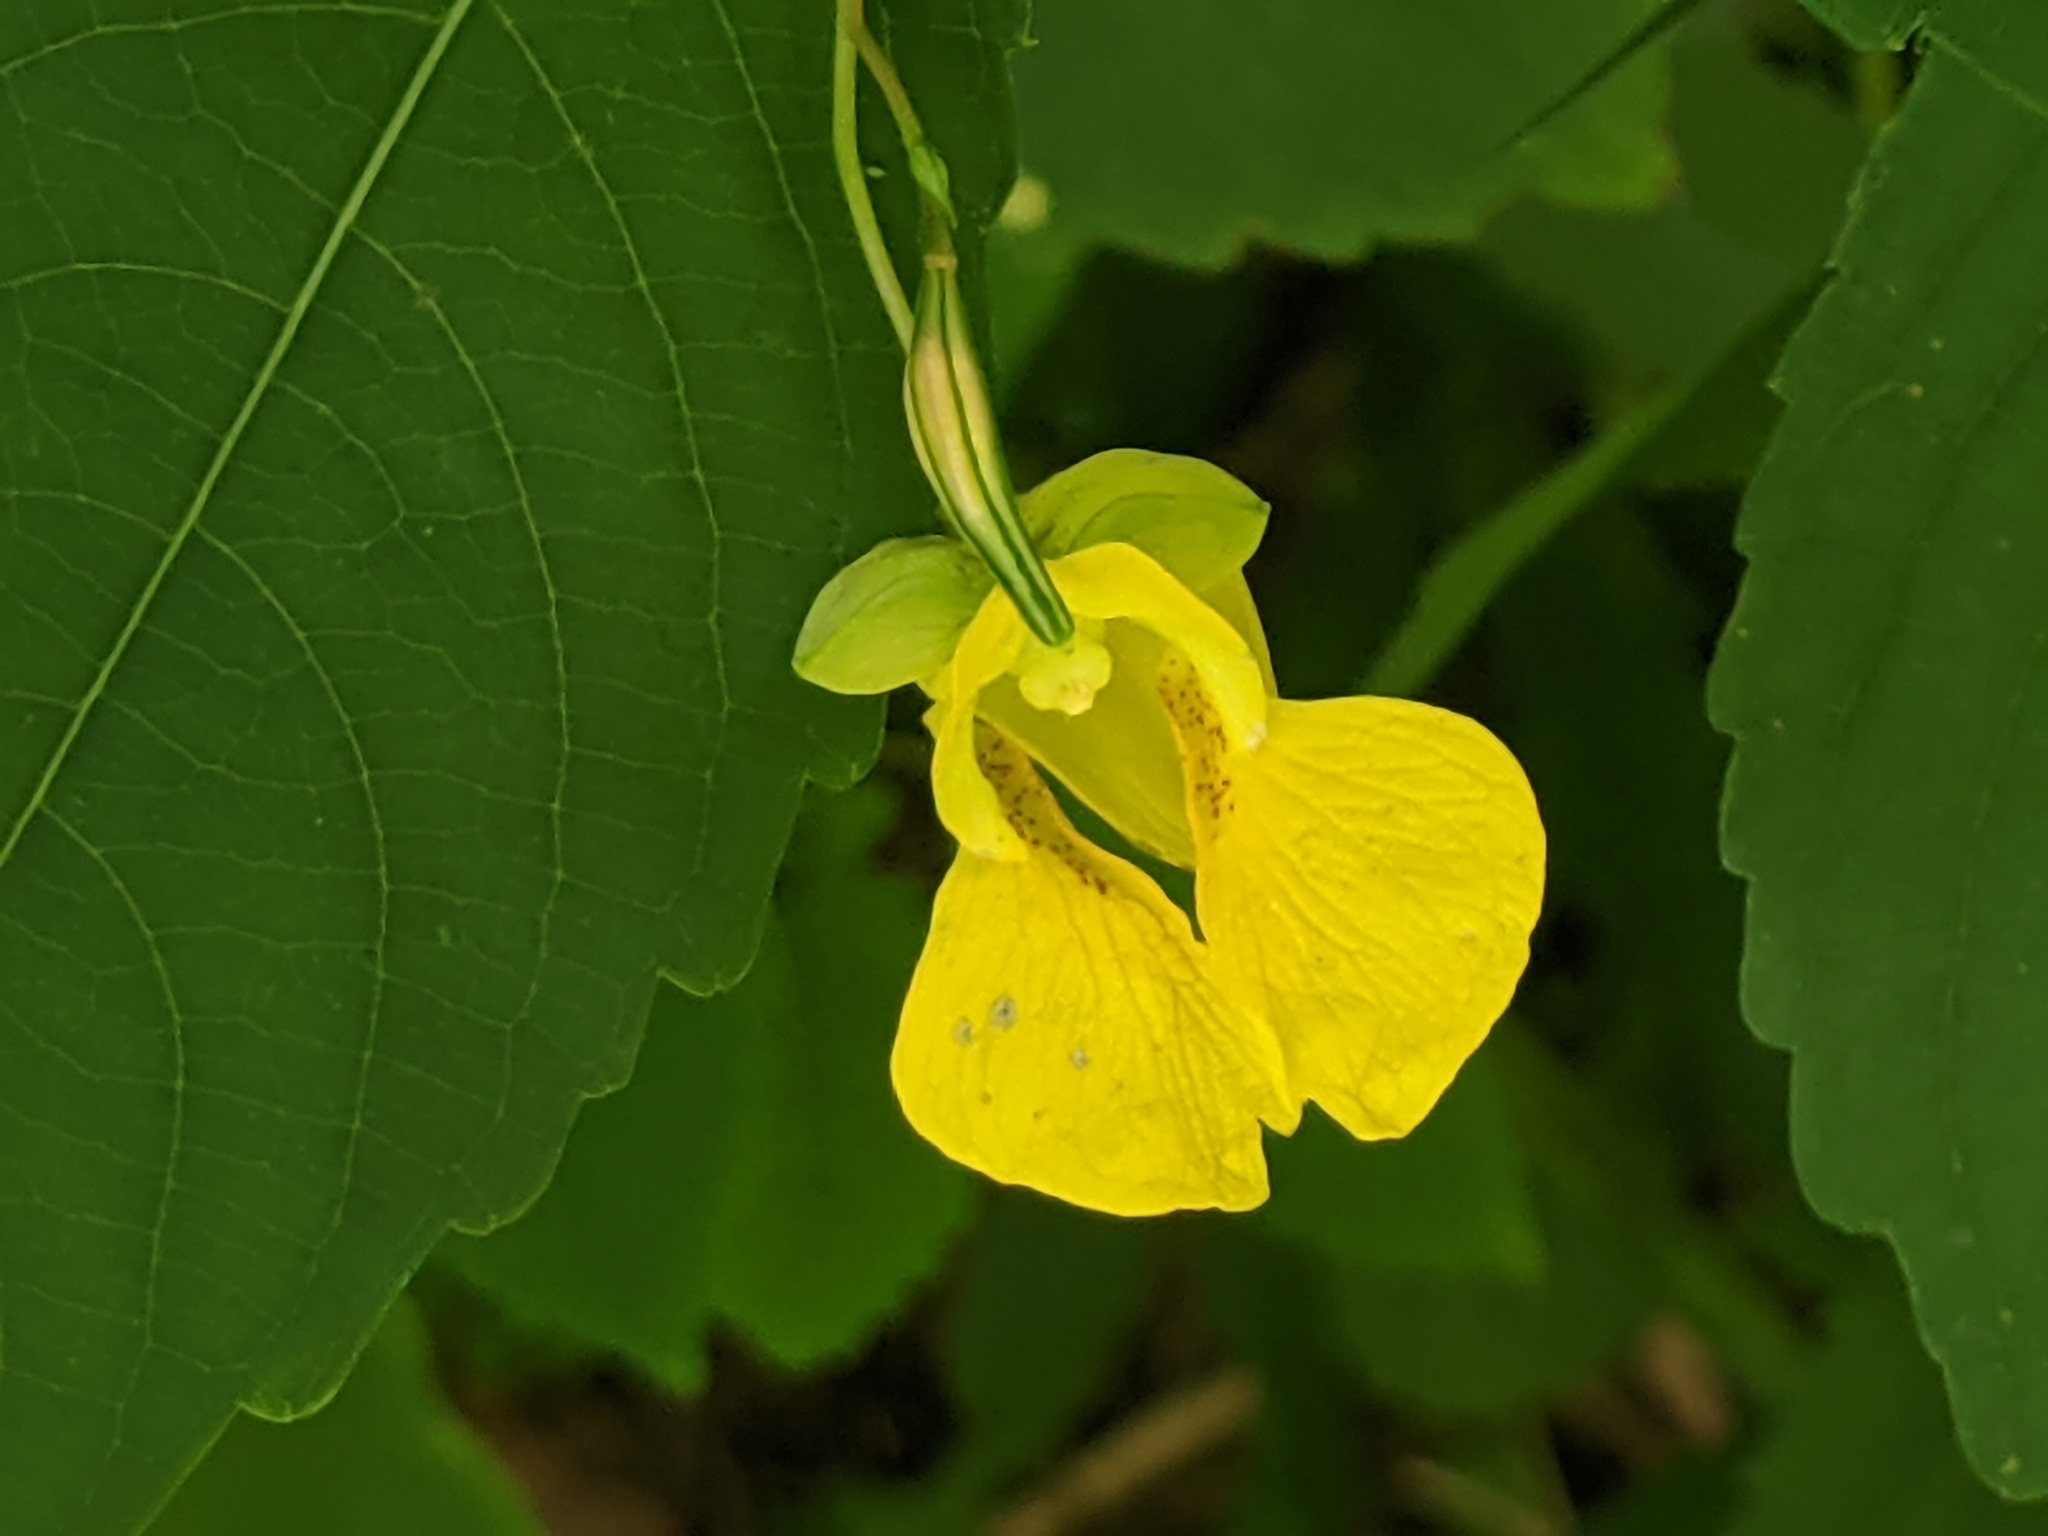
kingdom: Plantae
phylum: Tracheophyta
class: Magnoliopsida
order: Ericales
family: Balsaminaceae
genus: Impatiens
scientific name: Impatiens pallida
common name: Pale snapweed
